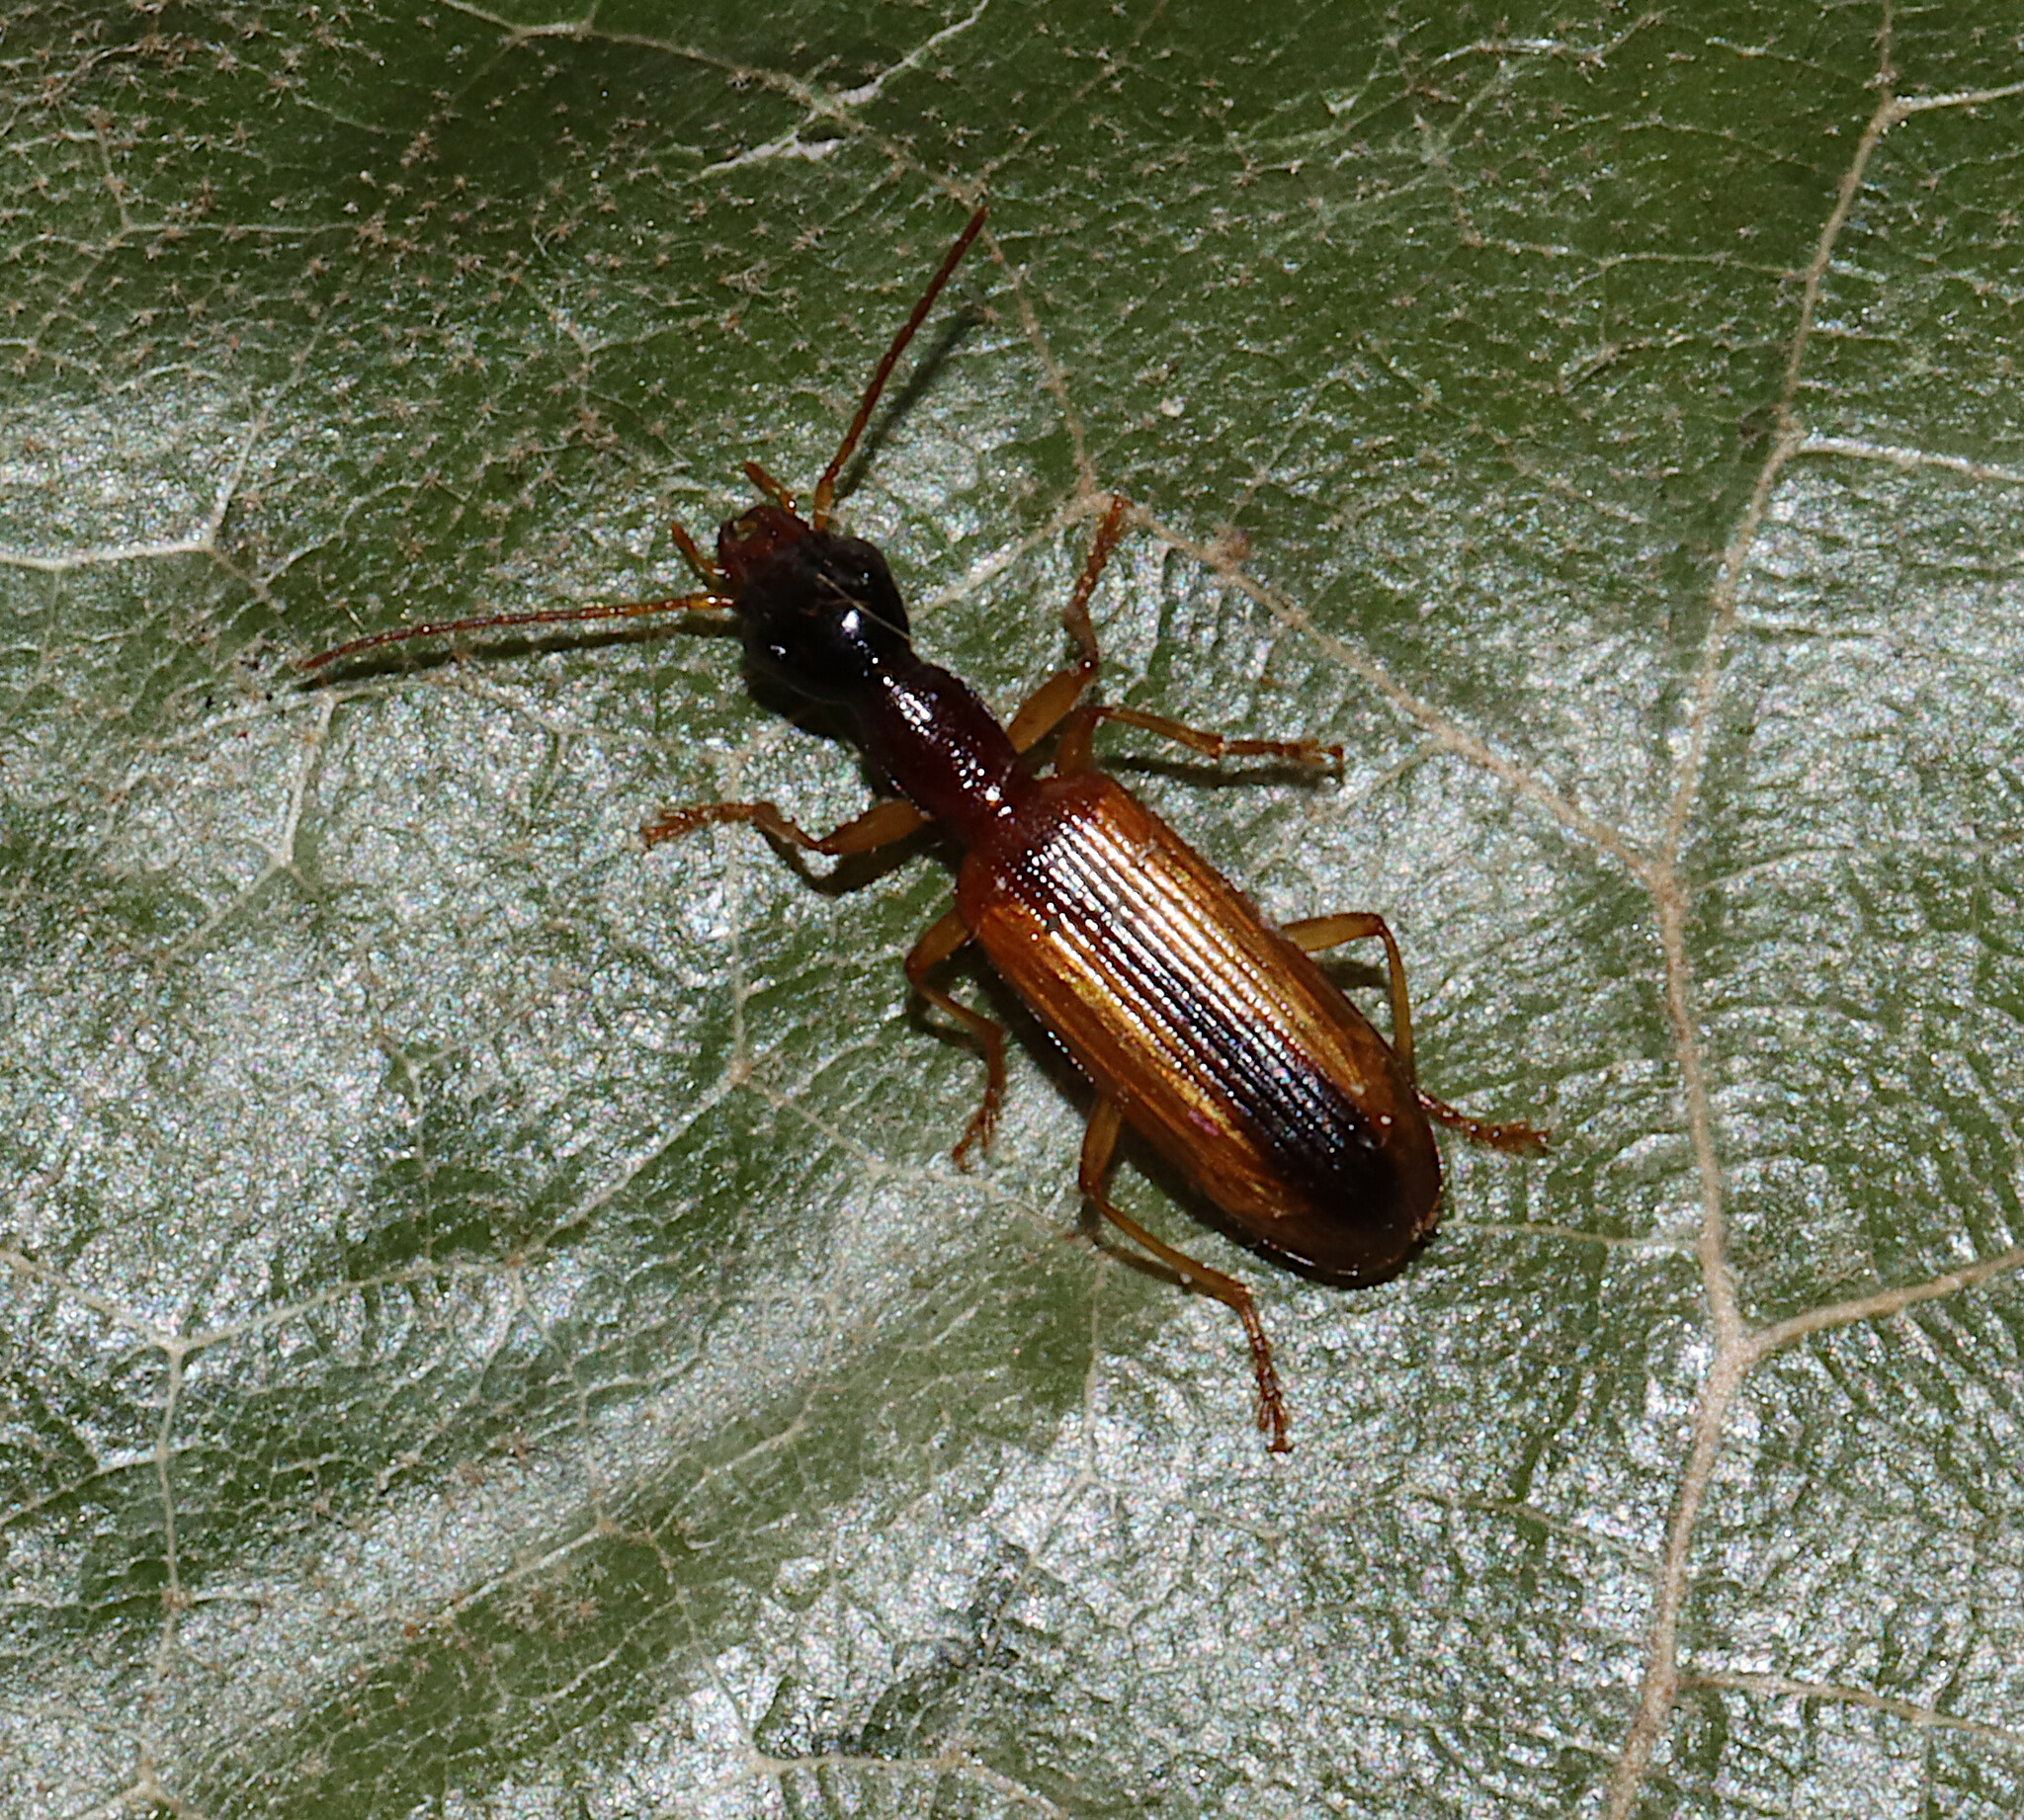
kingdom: Animalia
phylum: Arthropoda
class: Insecta
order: Coleoptera
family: Carabidae
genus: Leptotrachelus
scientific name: Leptotrachelus dorsalis
